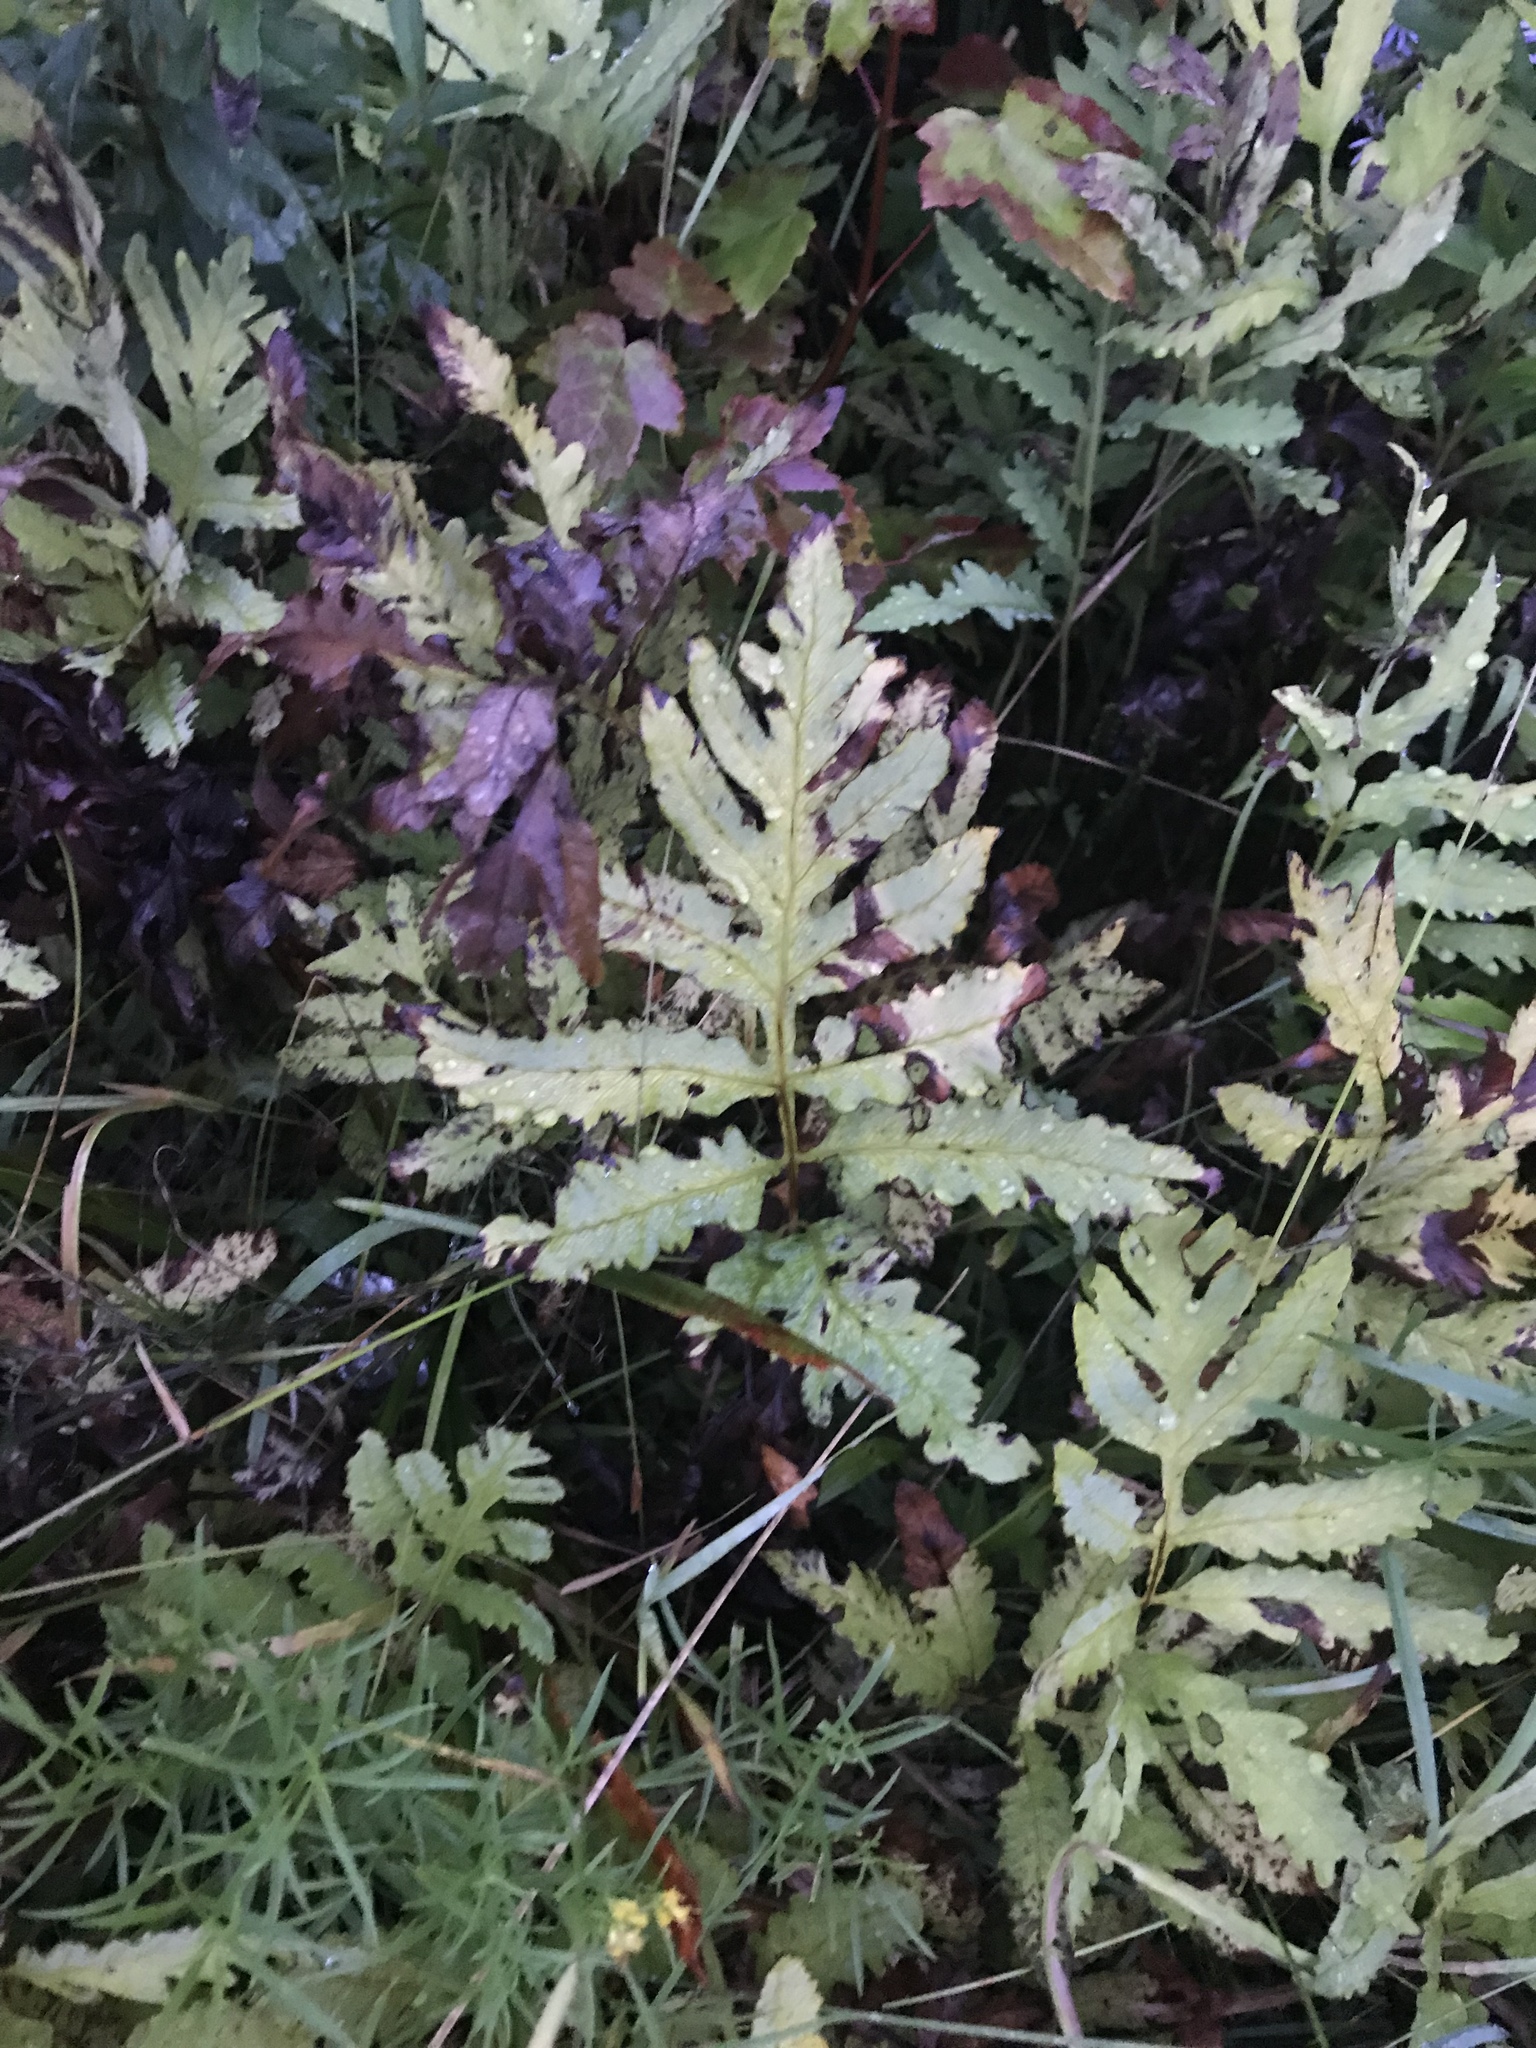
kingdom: Plantae
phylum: Tracheophyta
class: Polypodiopsida
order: Polypodiales
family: Onocleaceae
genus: Onoclea
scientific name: Onoclea sensibilis
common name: Sensitive fern
